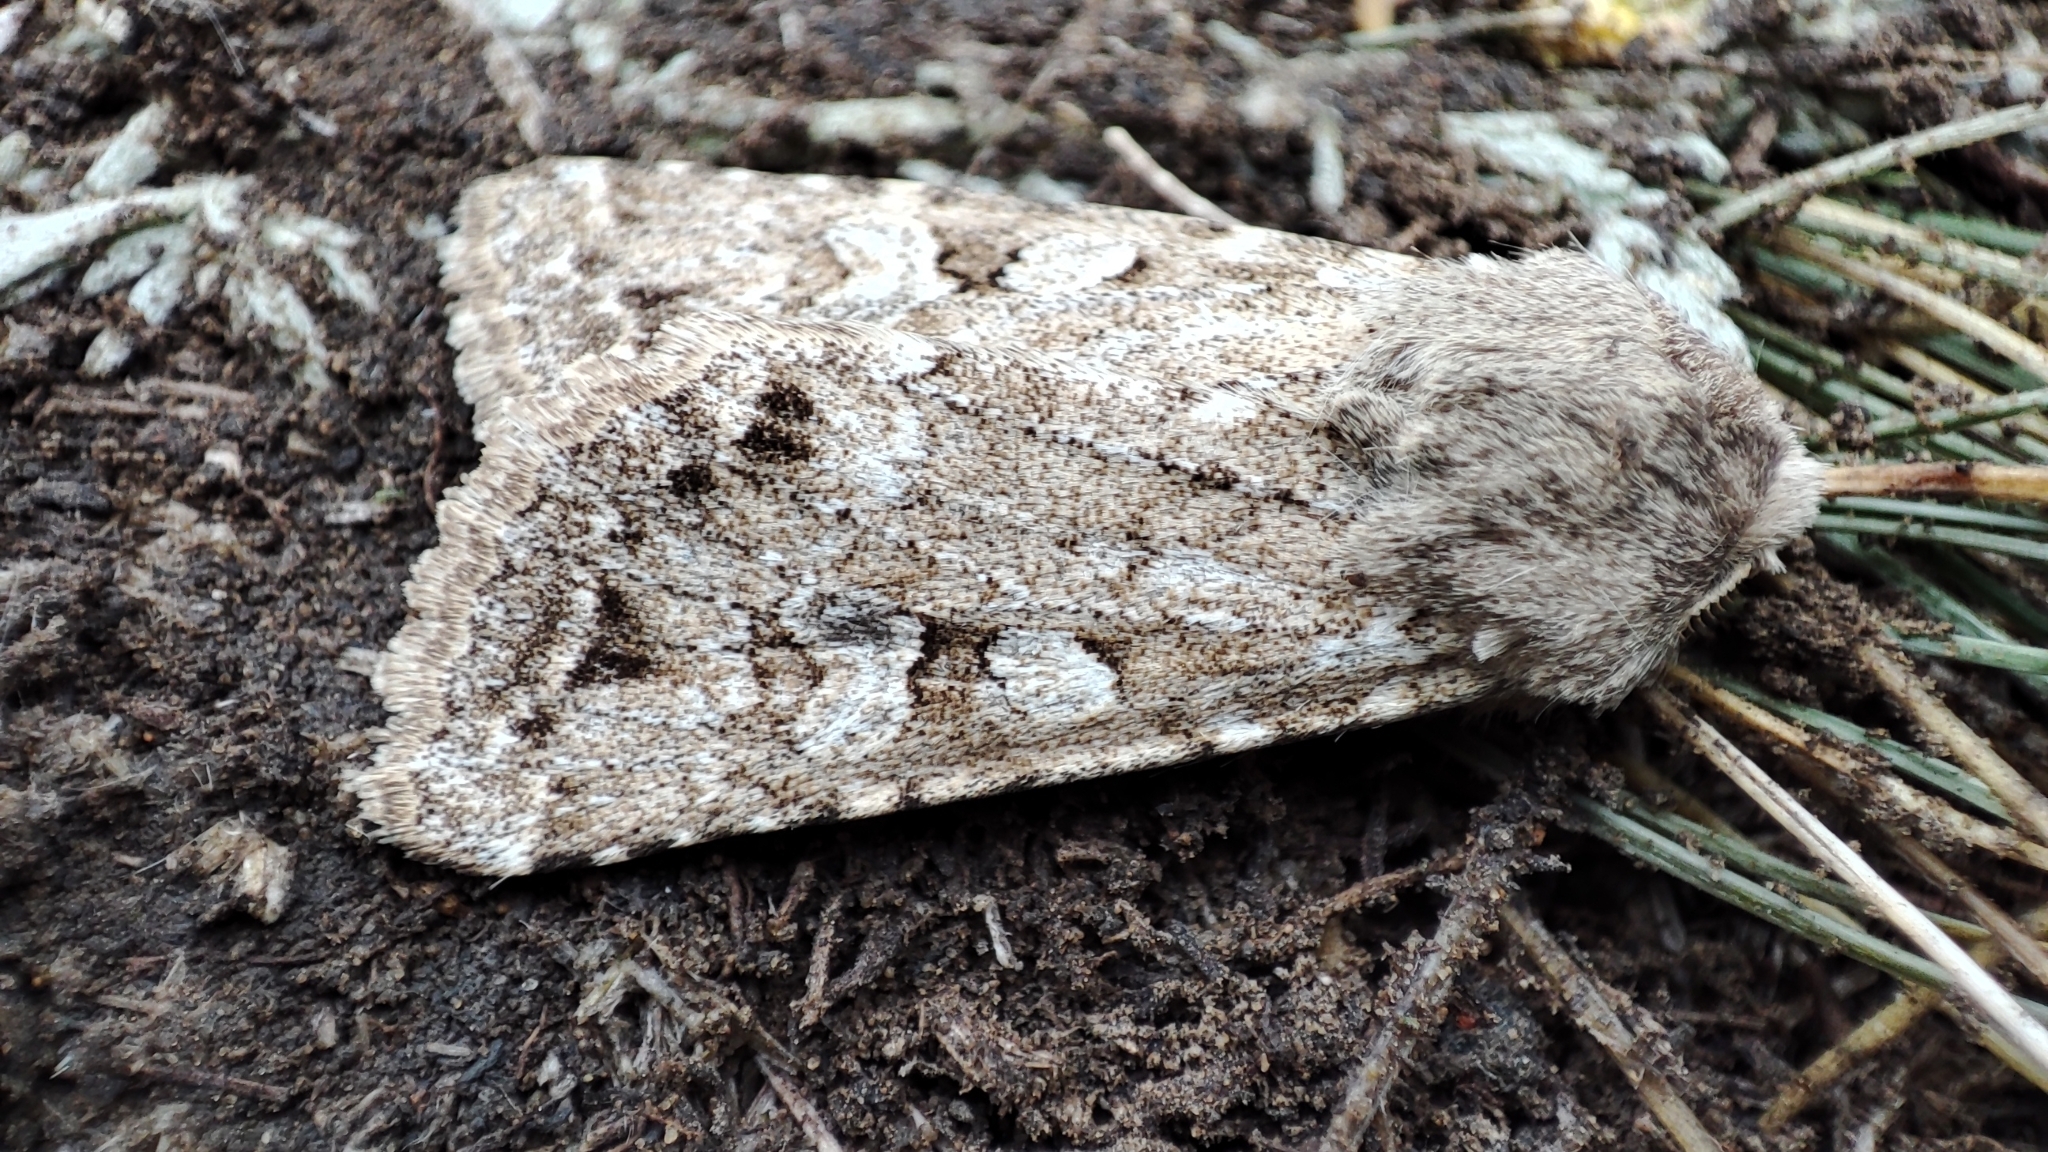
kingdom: Animalia
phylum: Arthropoda
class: Insecta
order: Lepidoptera
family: Noctuidae
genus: Pseudohadena
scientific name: Pseudohadena argyllostigma
